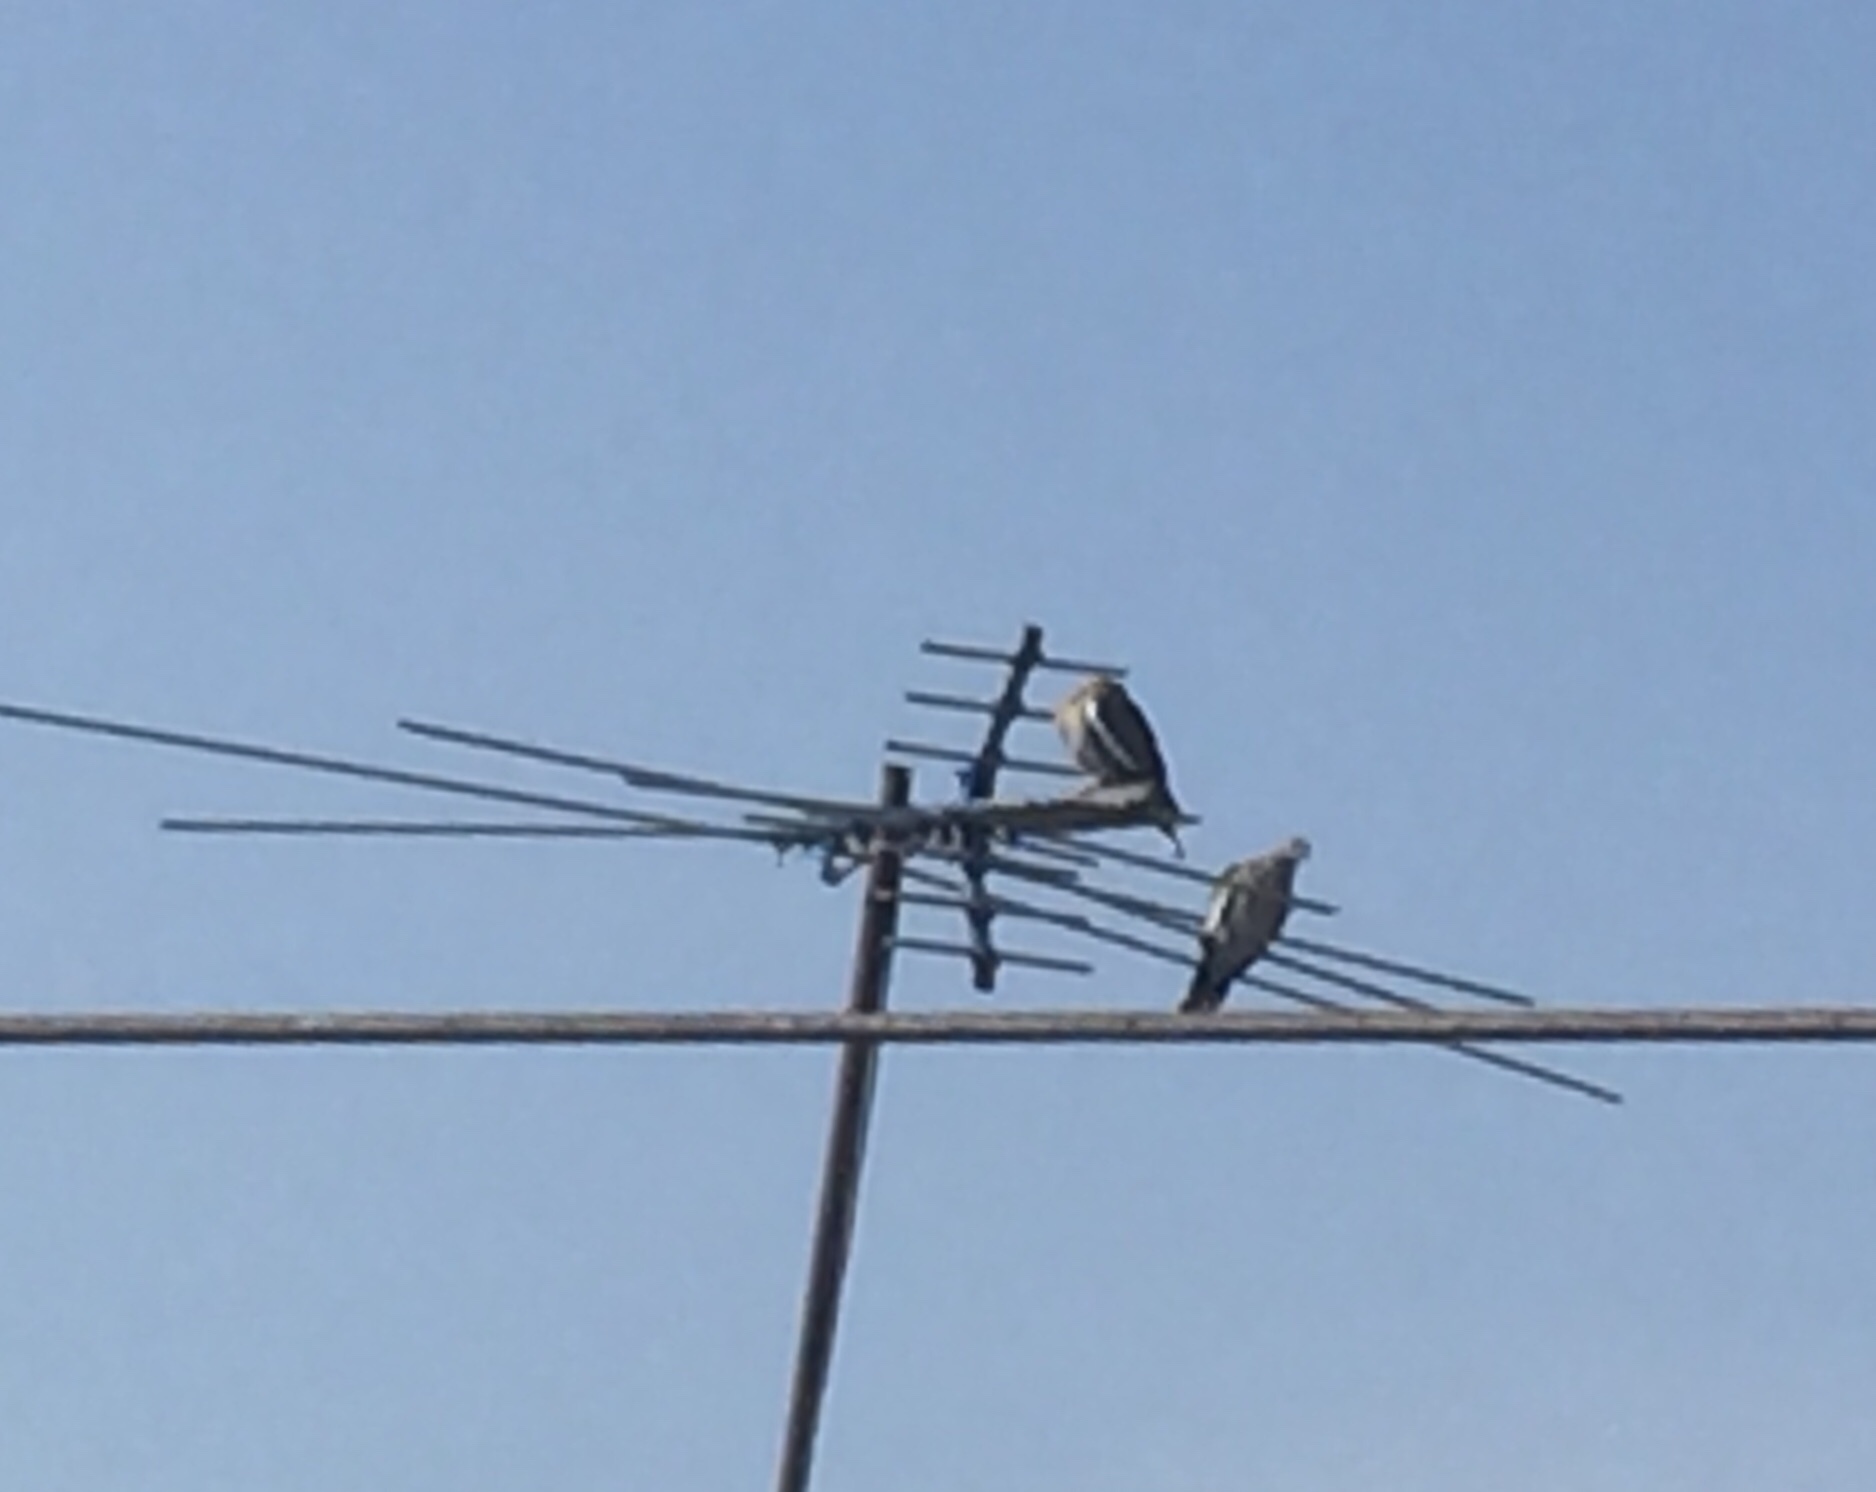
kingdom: Animalia
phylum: Chordata
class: Aves
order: Columbiformes
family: Columbidae
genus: Zenaida
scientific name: Zenaida asiatica
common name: White-winged dove
